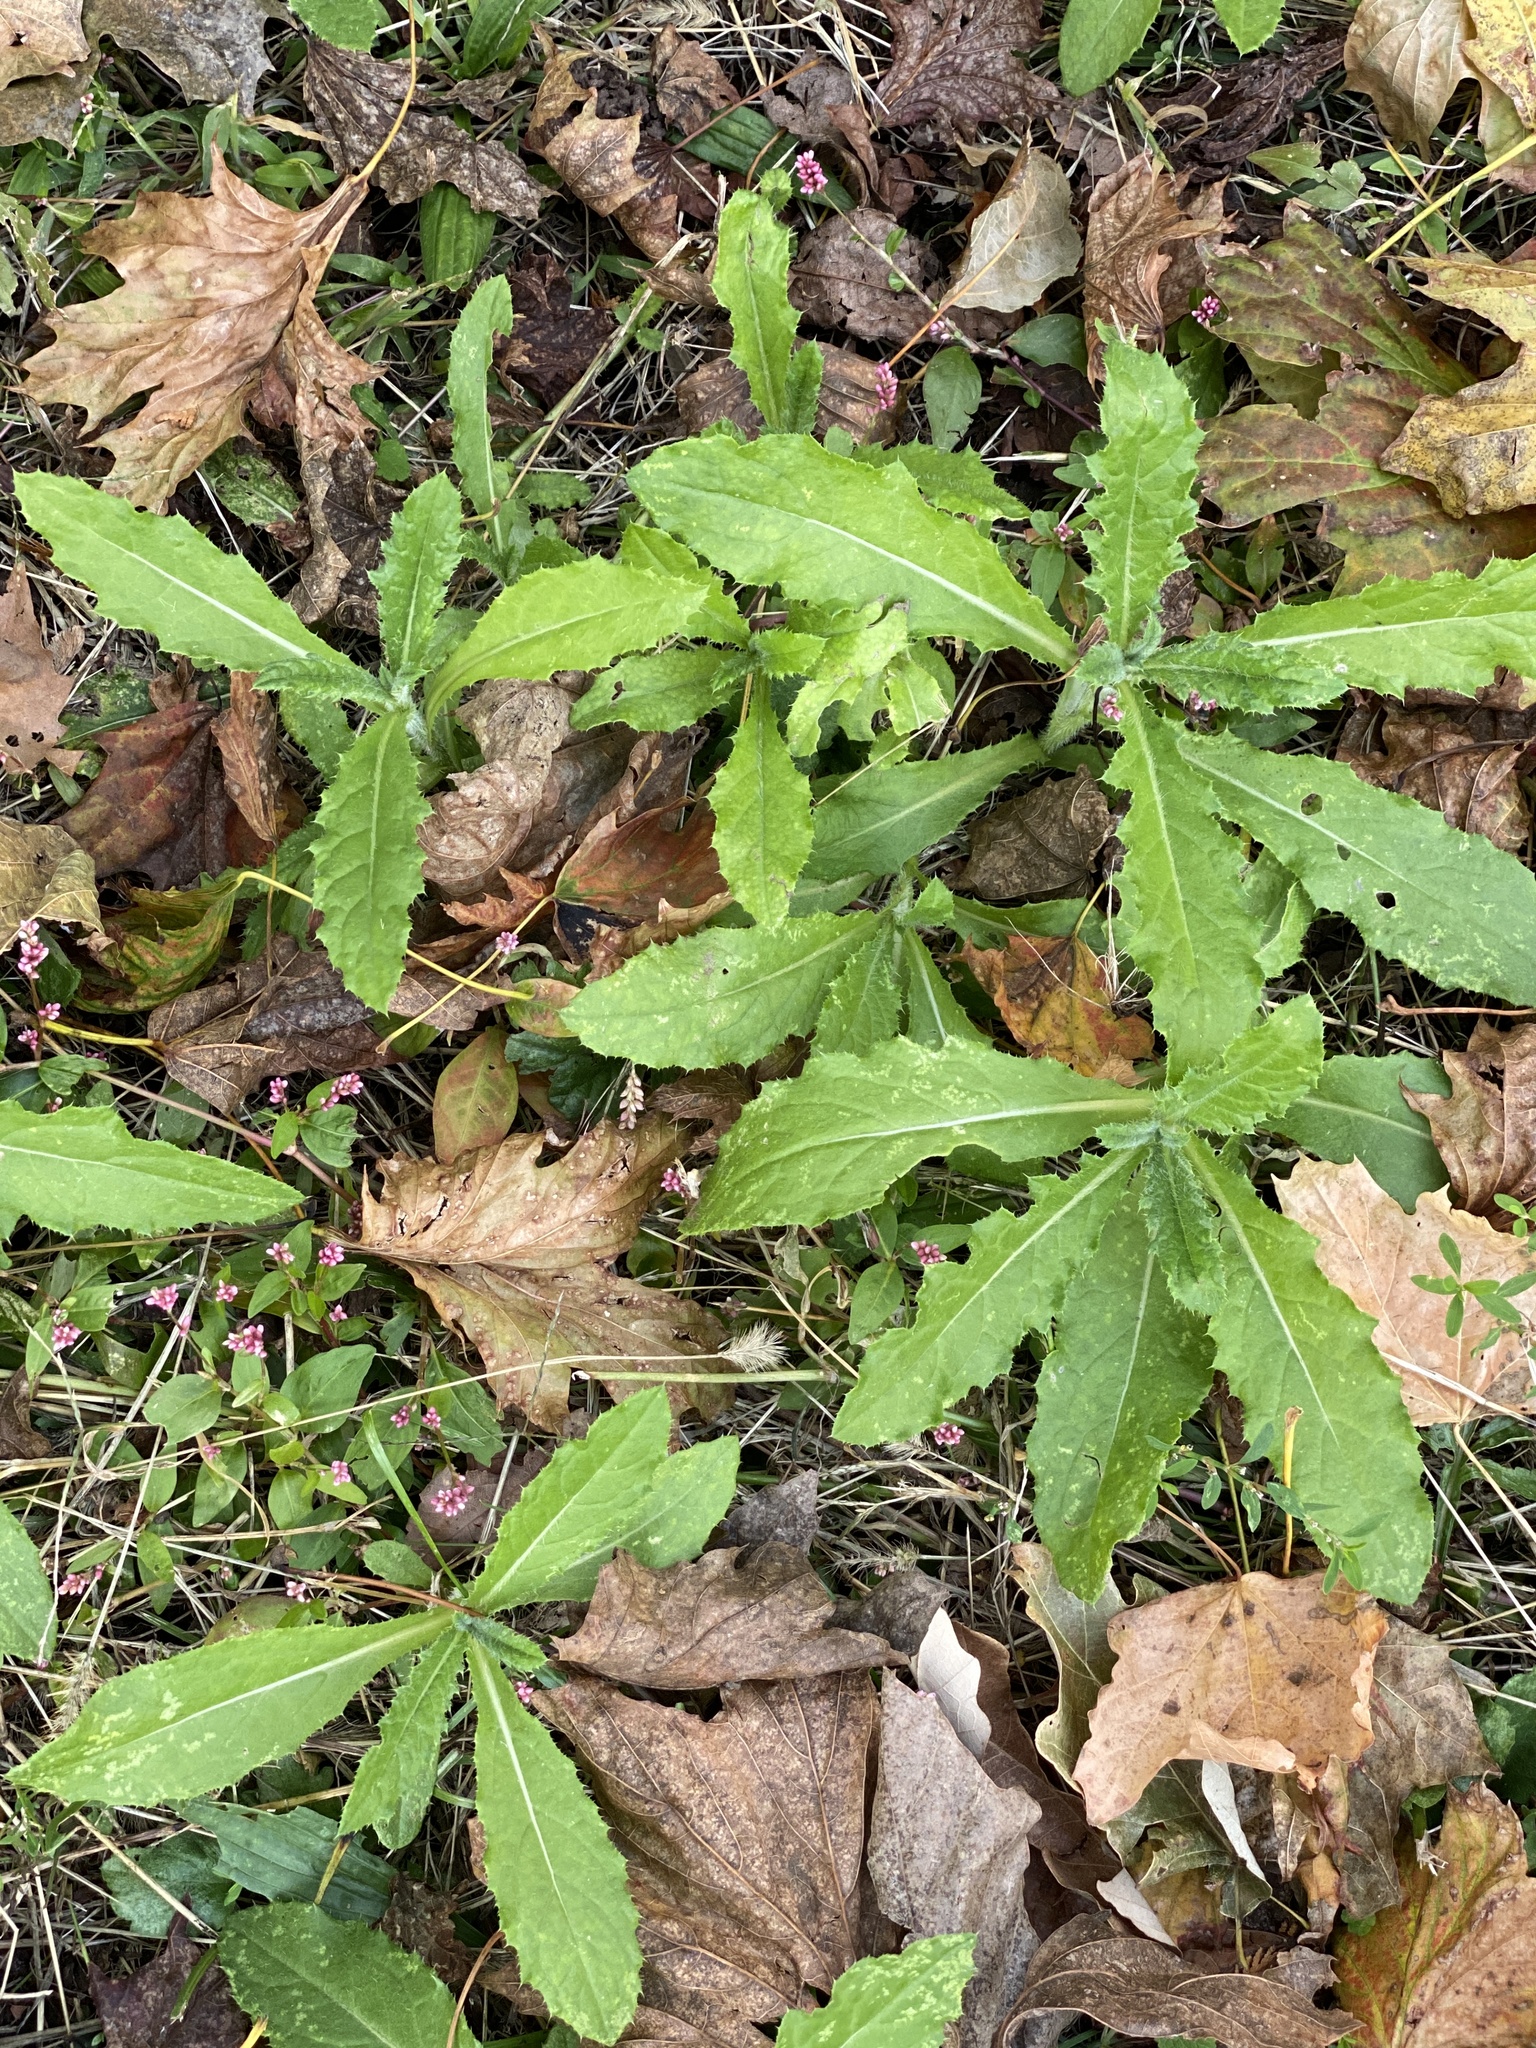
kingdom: Plantae
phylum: Tracheophyta
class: Magnoliopsida
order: Asterales
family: Asteraceae
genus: Cirsium
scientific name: Cirsium arvense
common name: Creeping thistle
